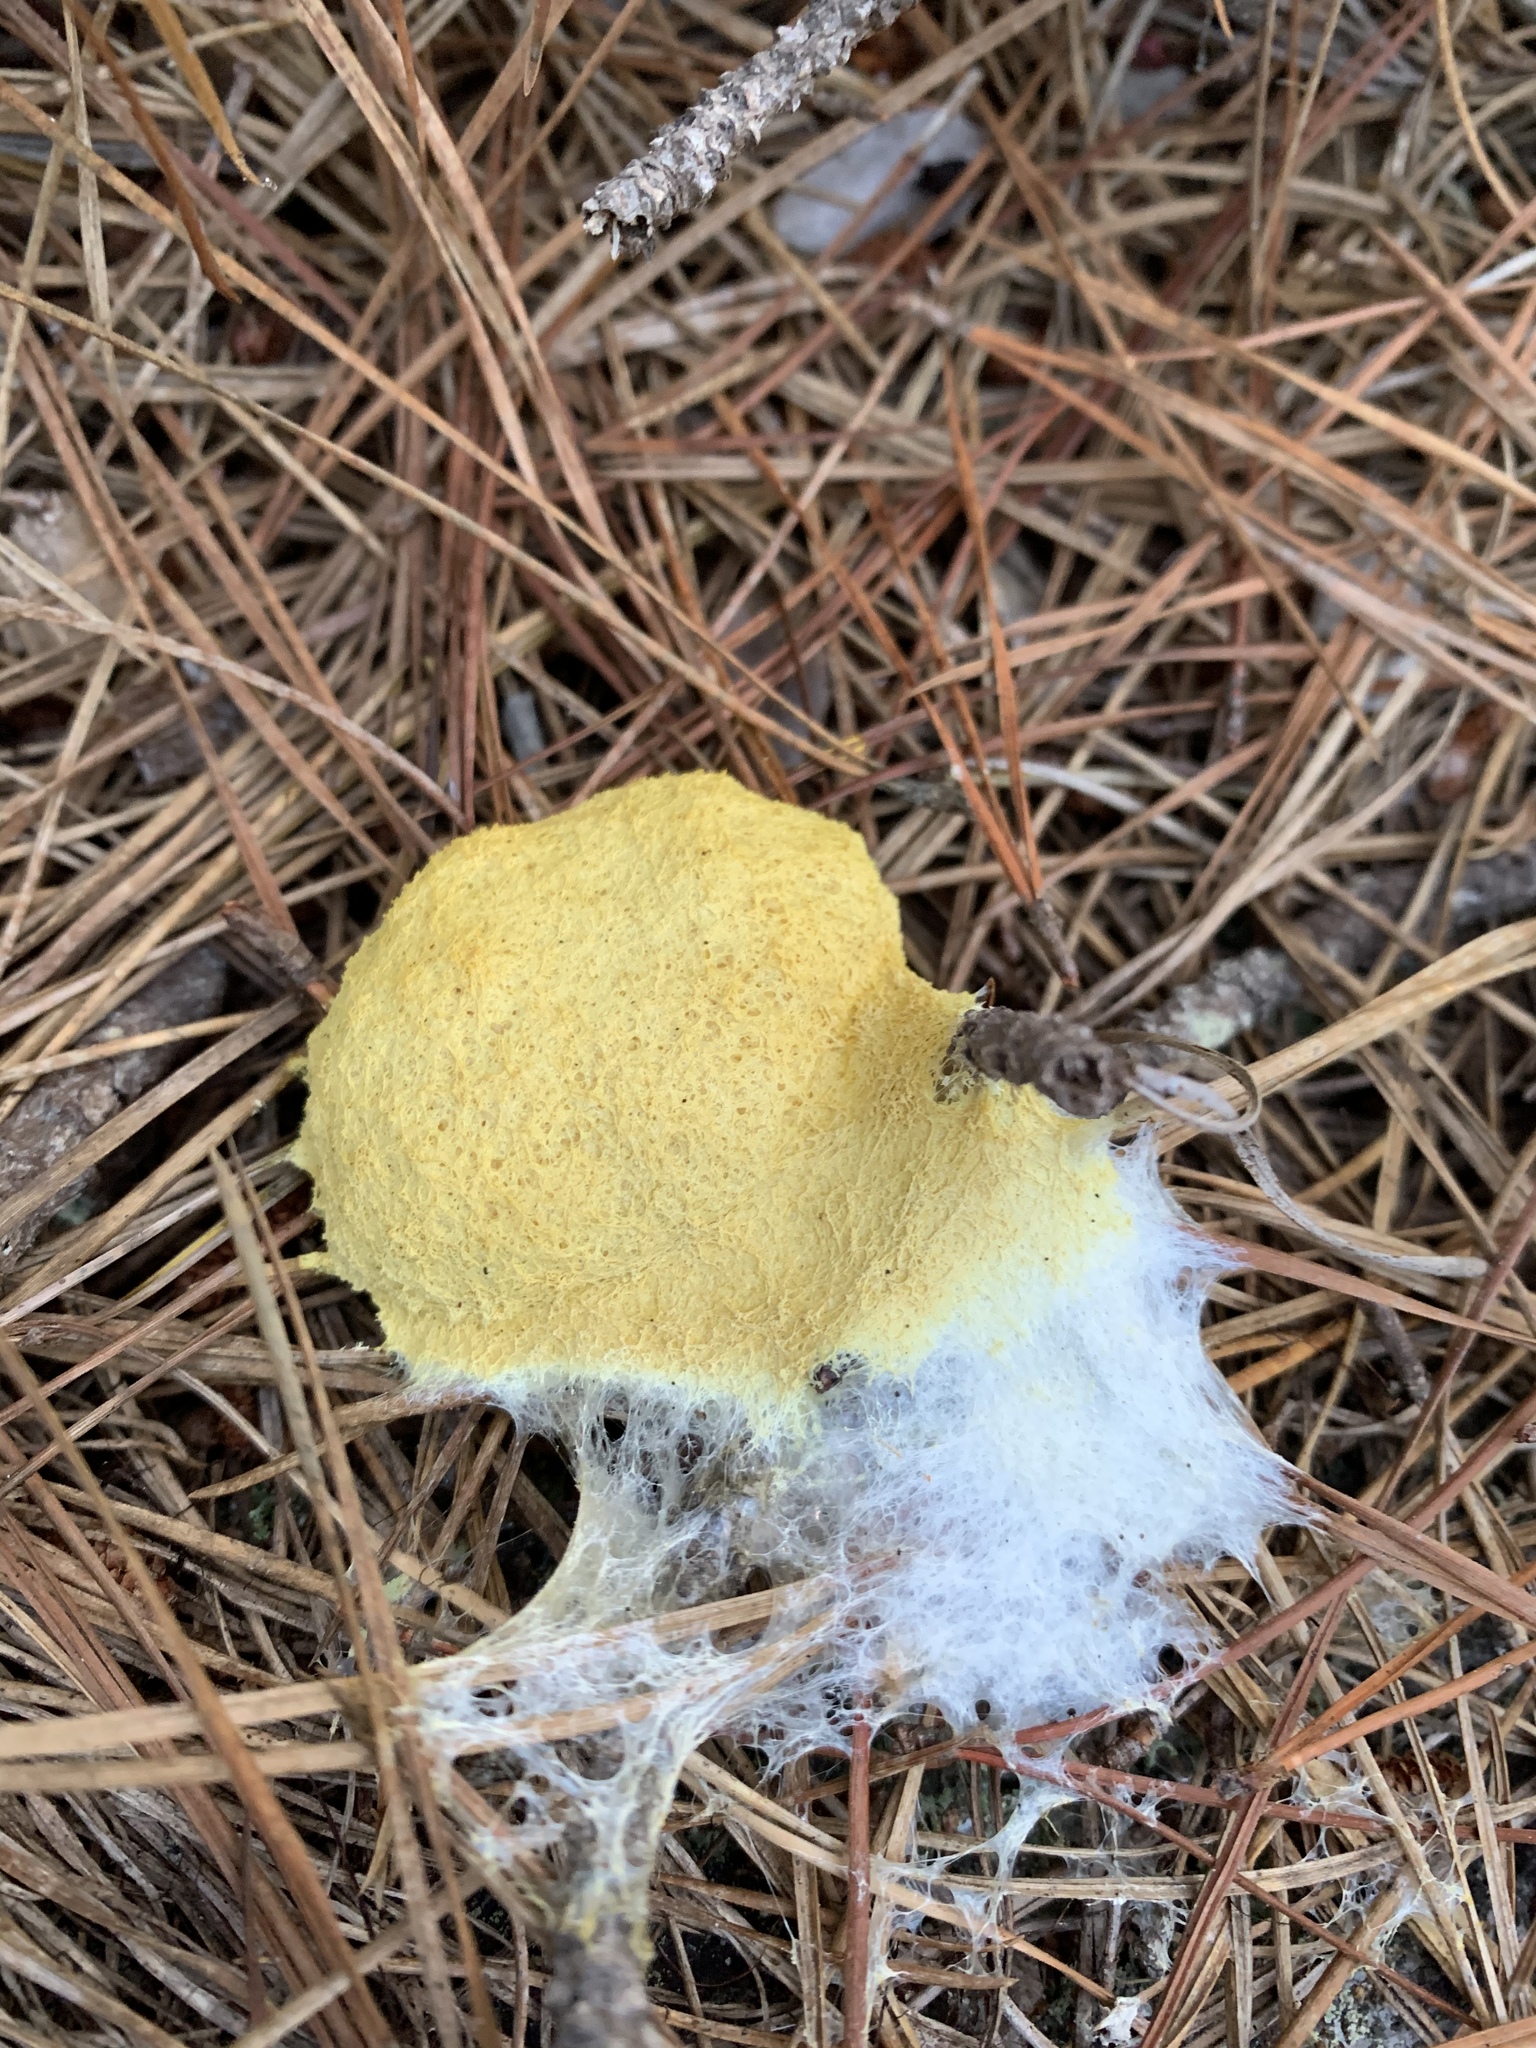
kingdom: Protozoa
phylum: Mycetozoa
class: Myxomycetes
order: Physarales
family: Physaraceae
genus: Fuligo
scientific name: Fuligo septica
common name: Dog vomit slime mold
